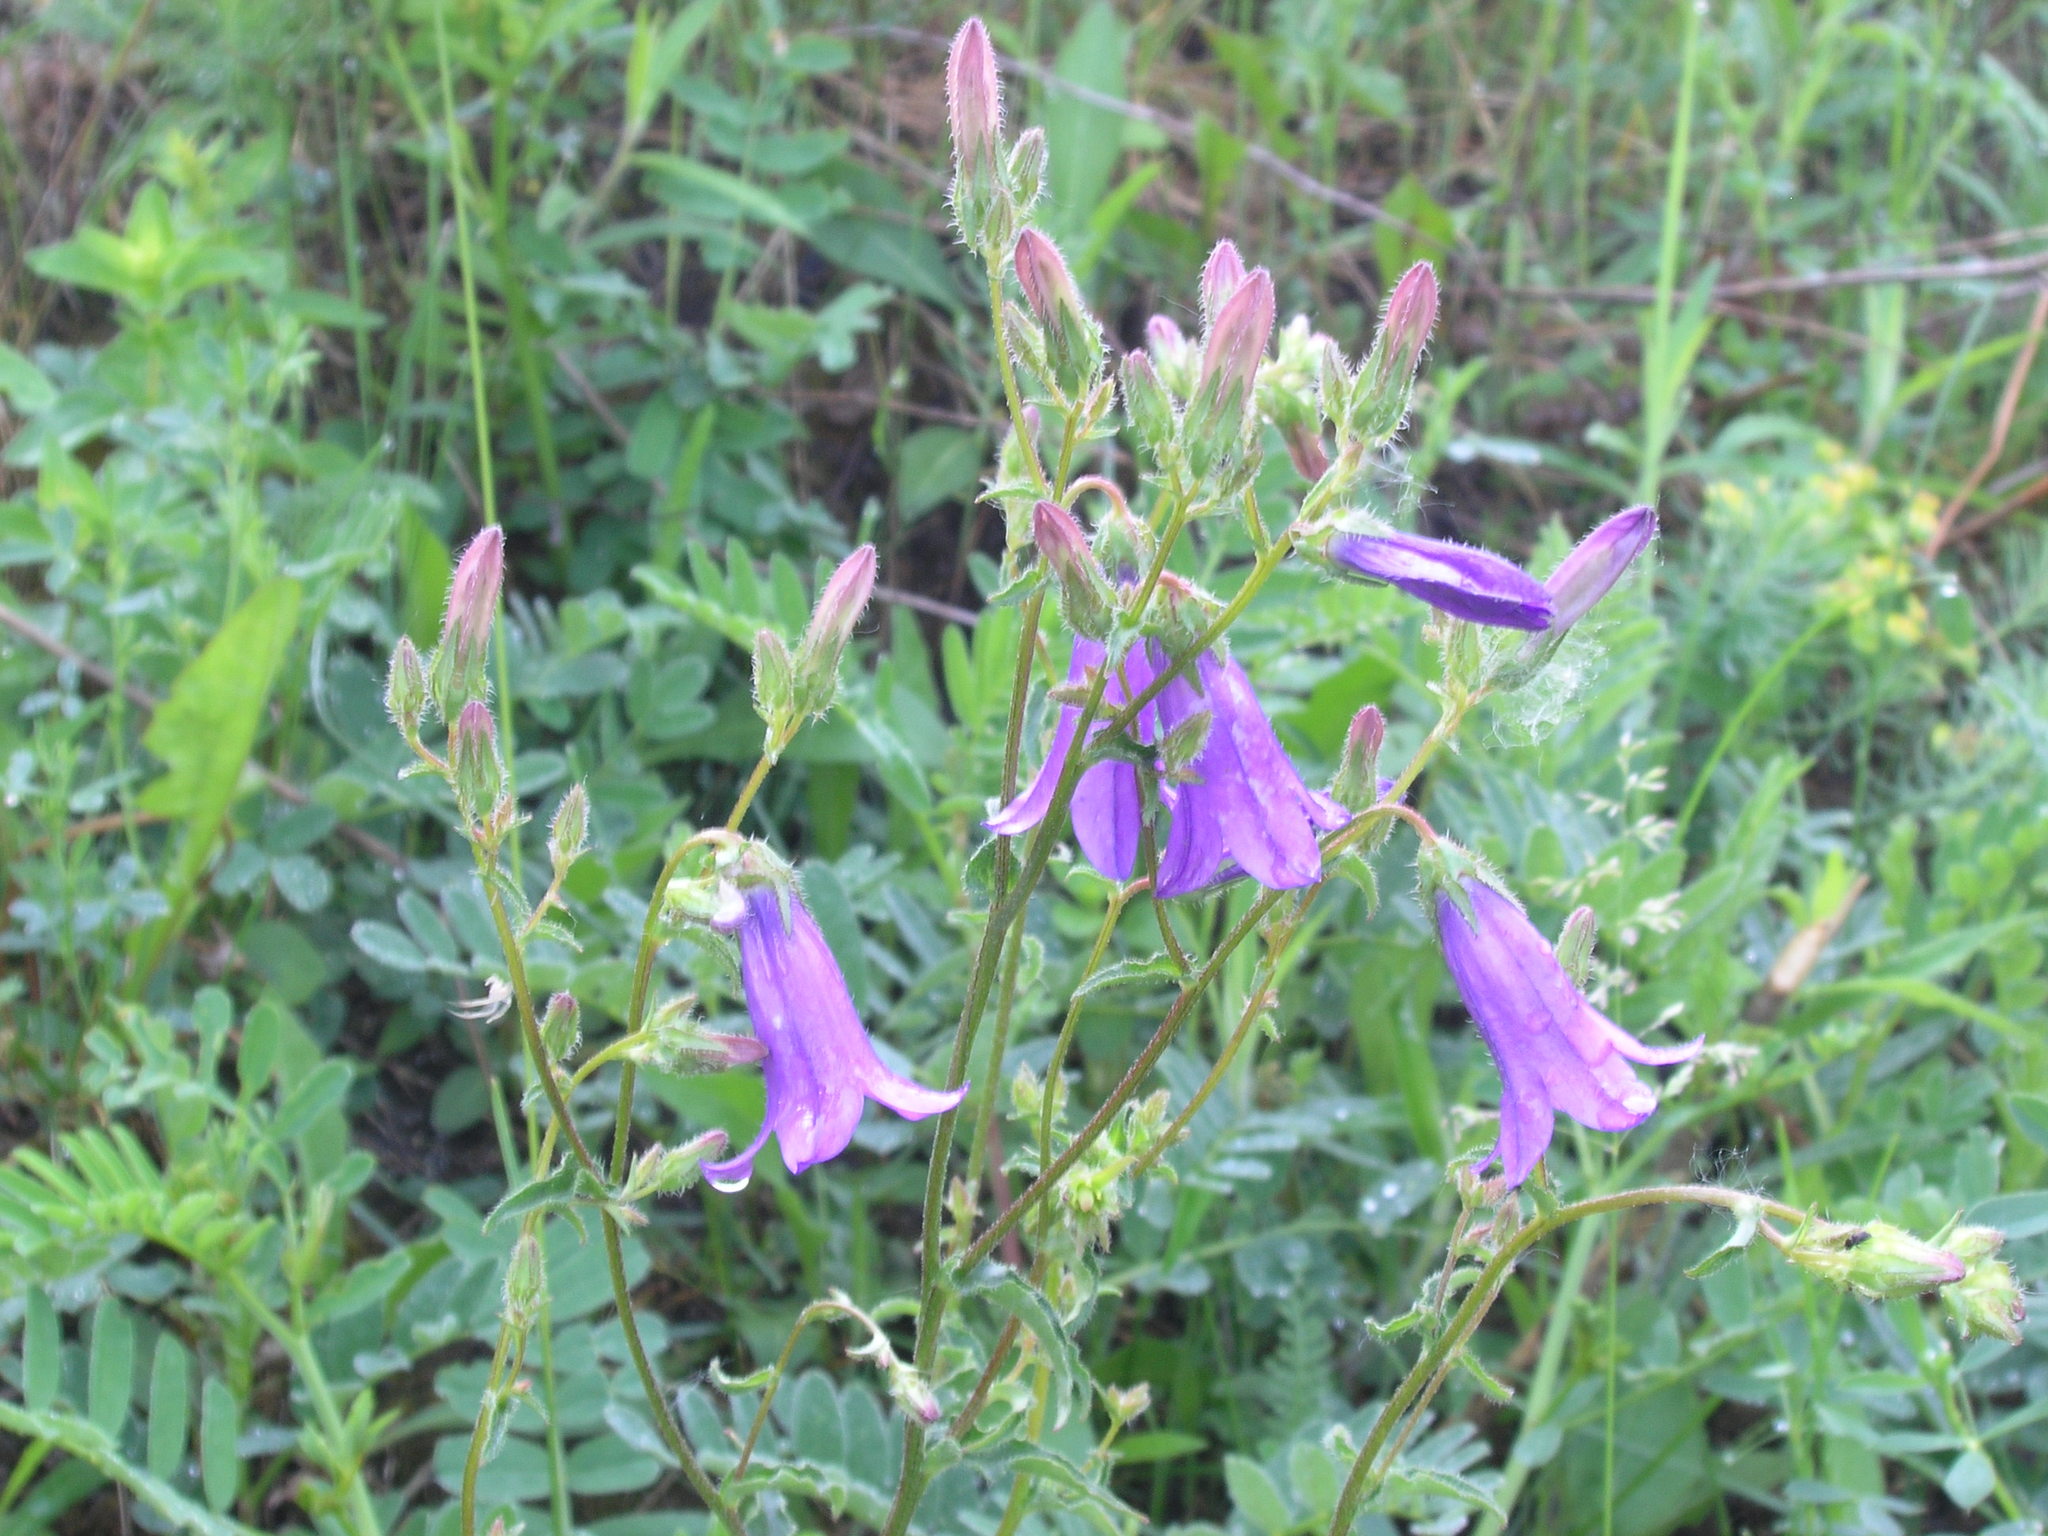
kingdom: Plantae
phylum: Tracheophyta
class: Magnoliopsida
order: Asterales
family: Campanulaceae
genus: Campanula
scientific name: Campanula sibirica
